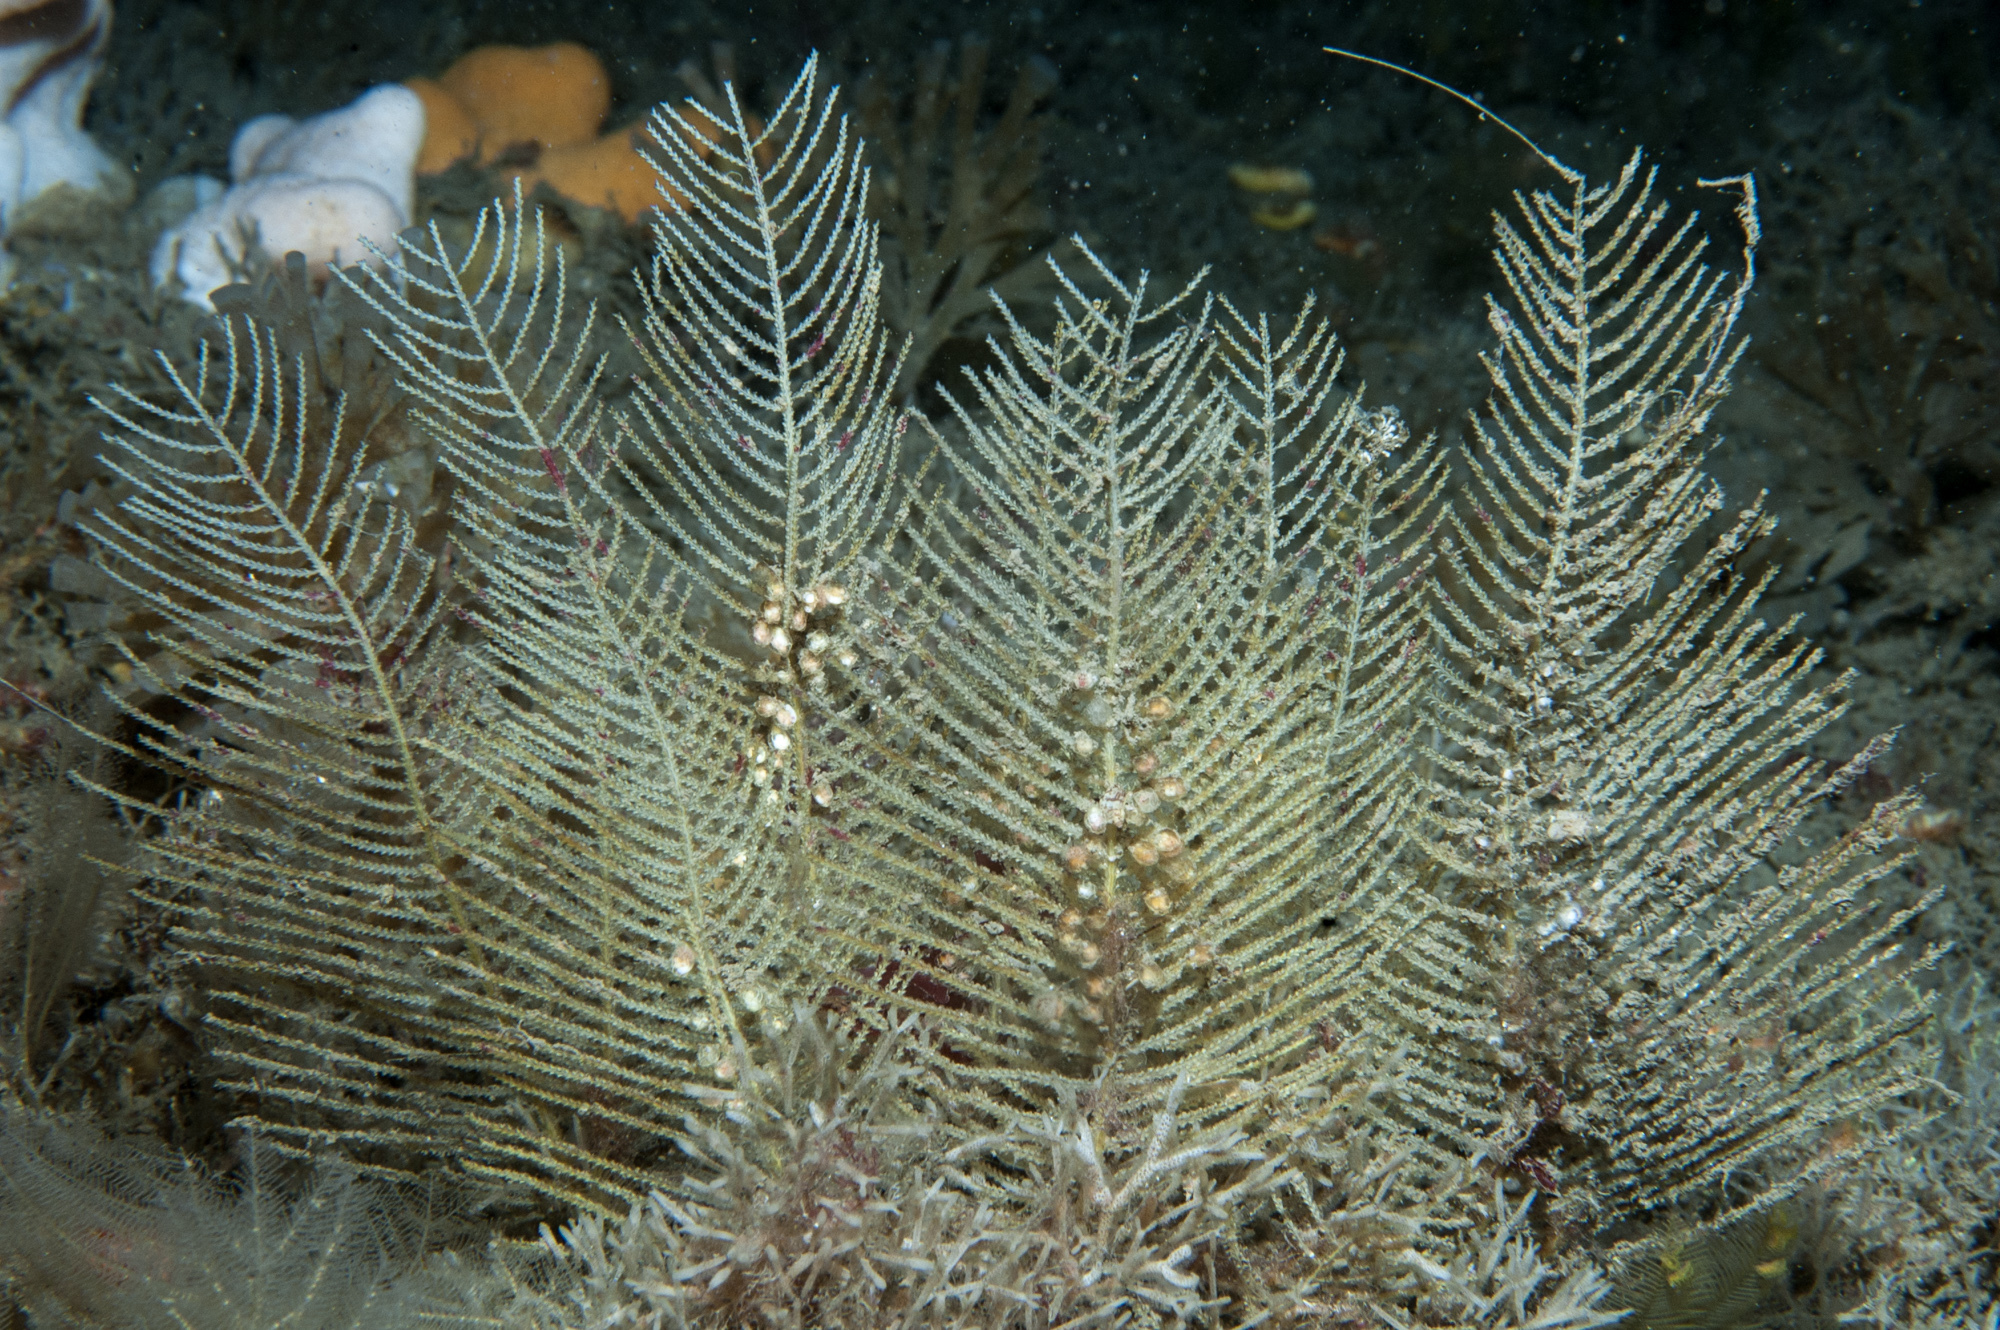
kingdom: Animalia
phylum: Cnidaria
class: Hydrozoa
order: Leptothecata
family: Sertulariidae
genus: Diphasia
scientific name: Diphasia nigra
